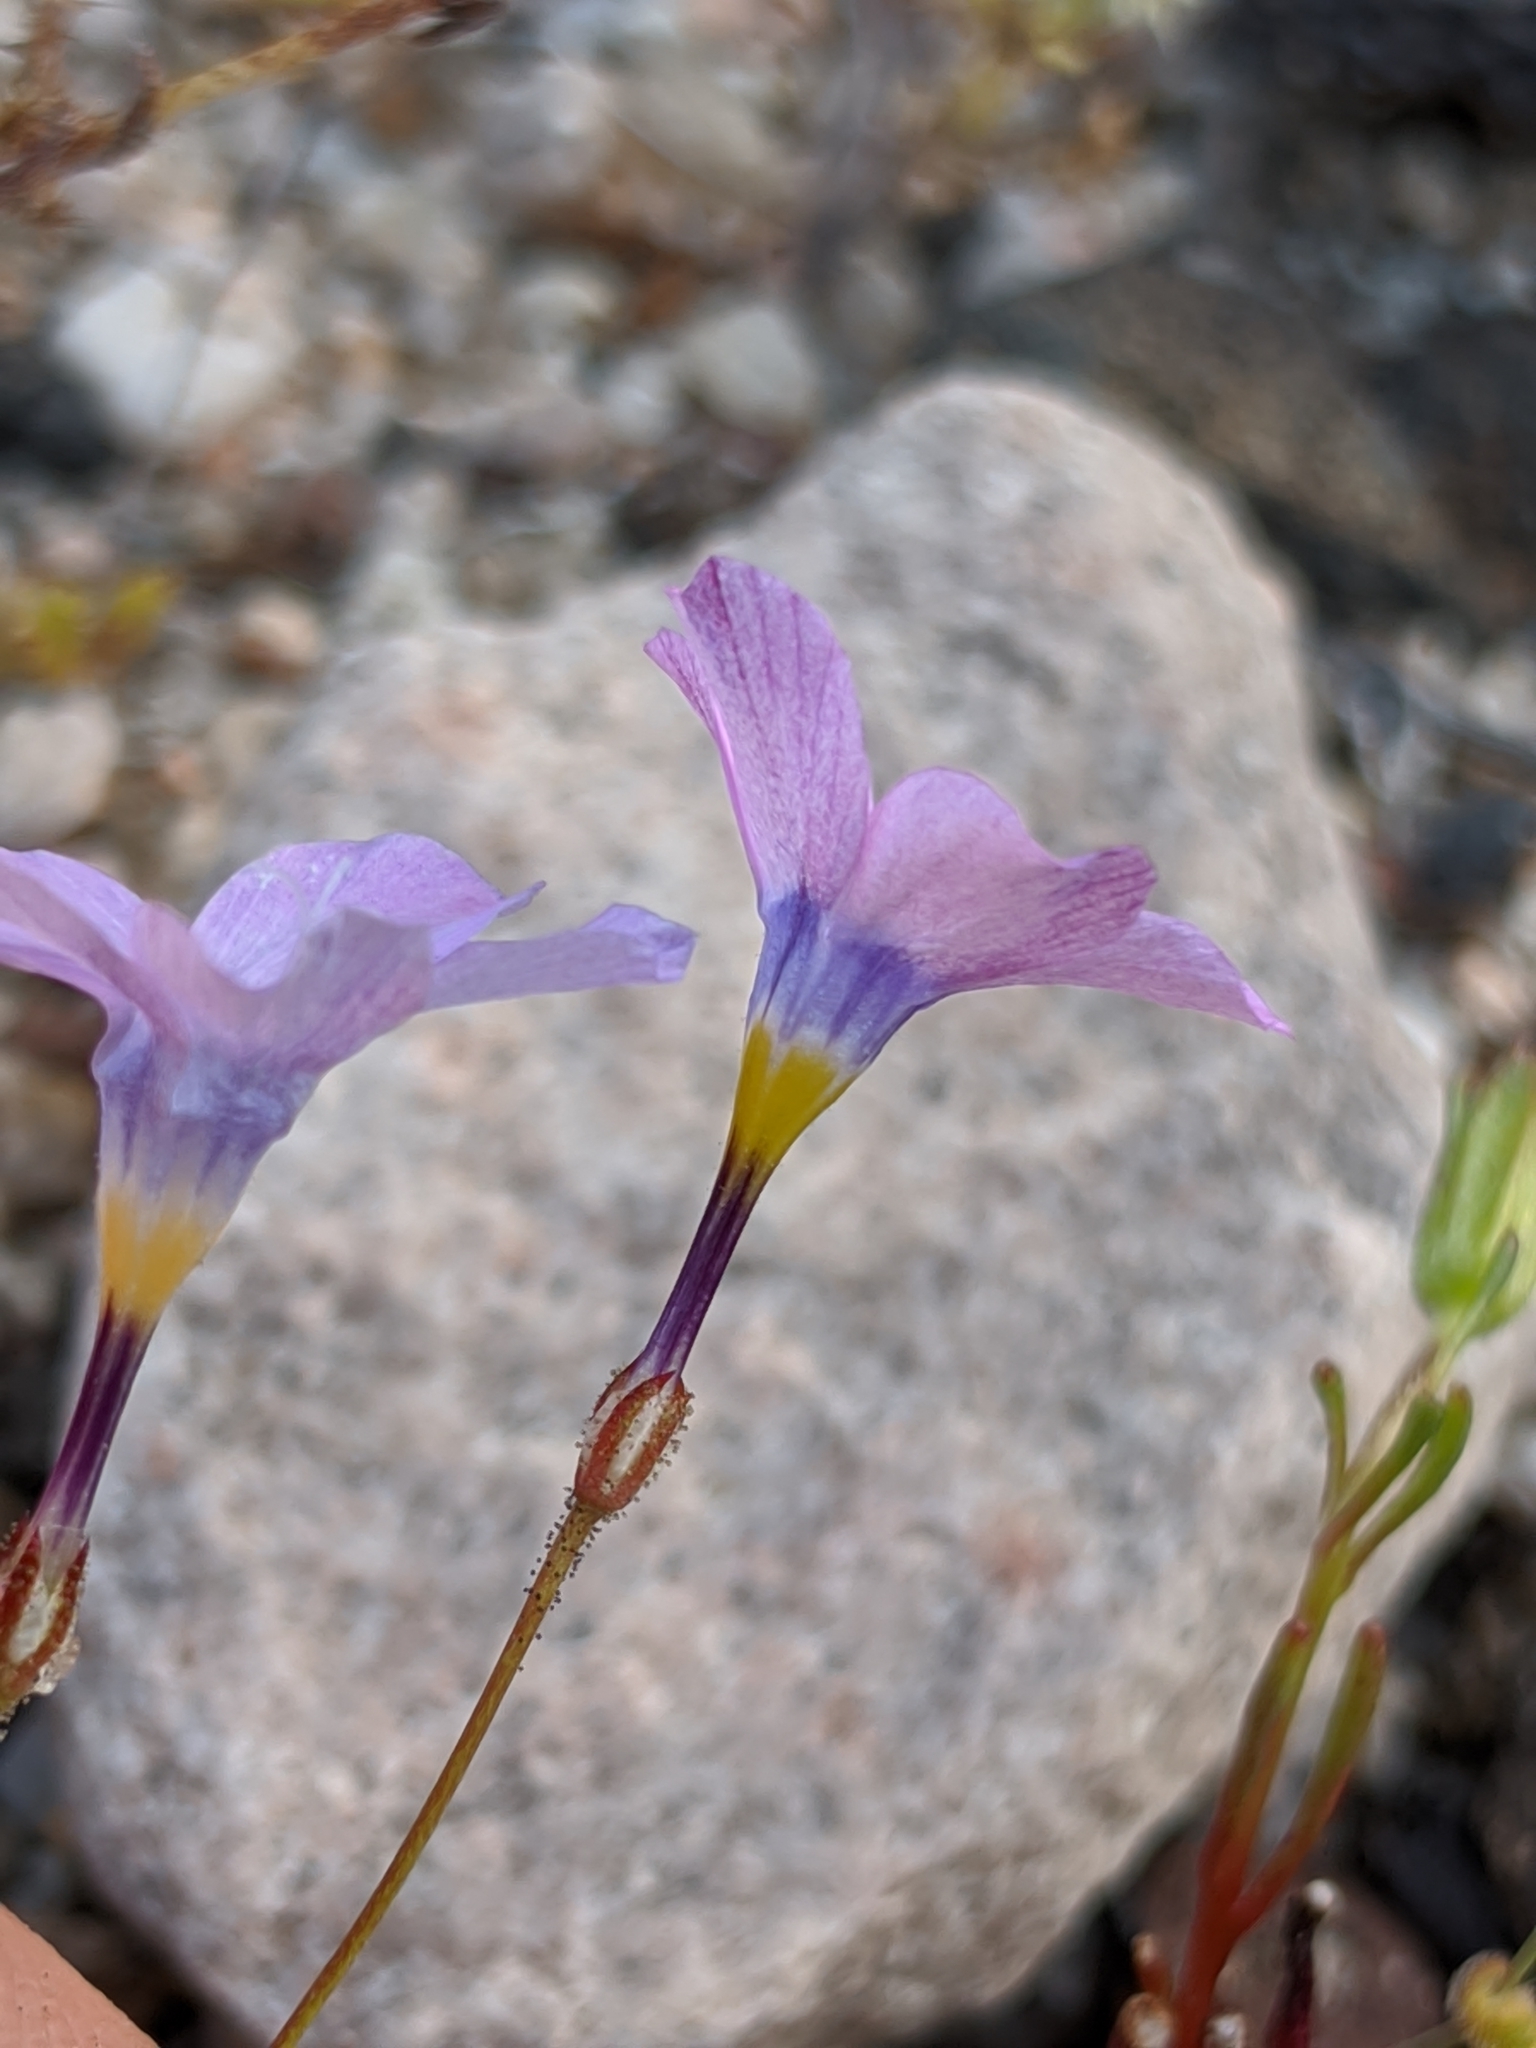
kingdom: Plantae
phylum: Tracheophyta
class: Magnoliopsida
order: Ericales
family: Polemoniaceae
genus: Gilia
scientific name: Gilia cana
